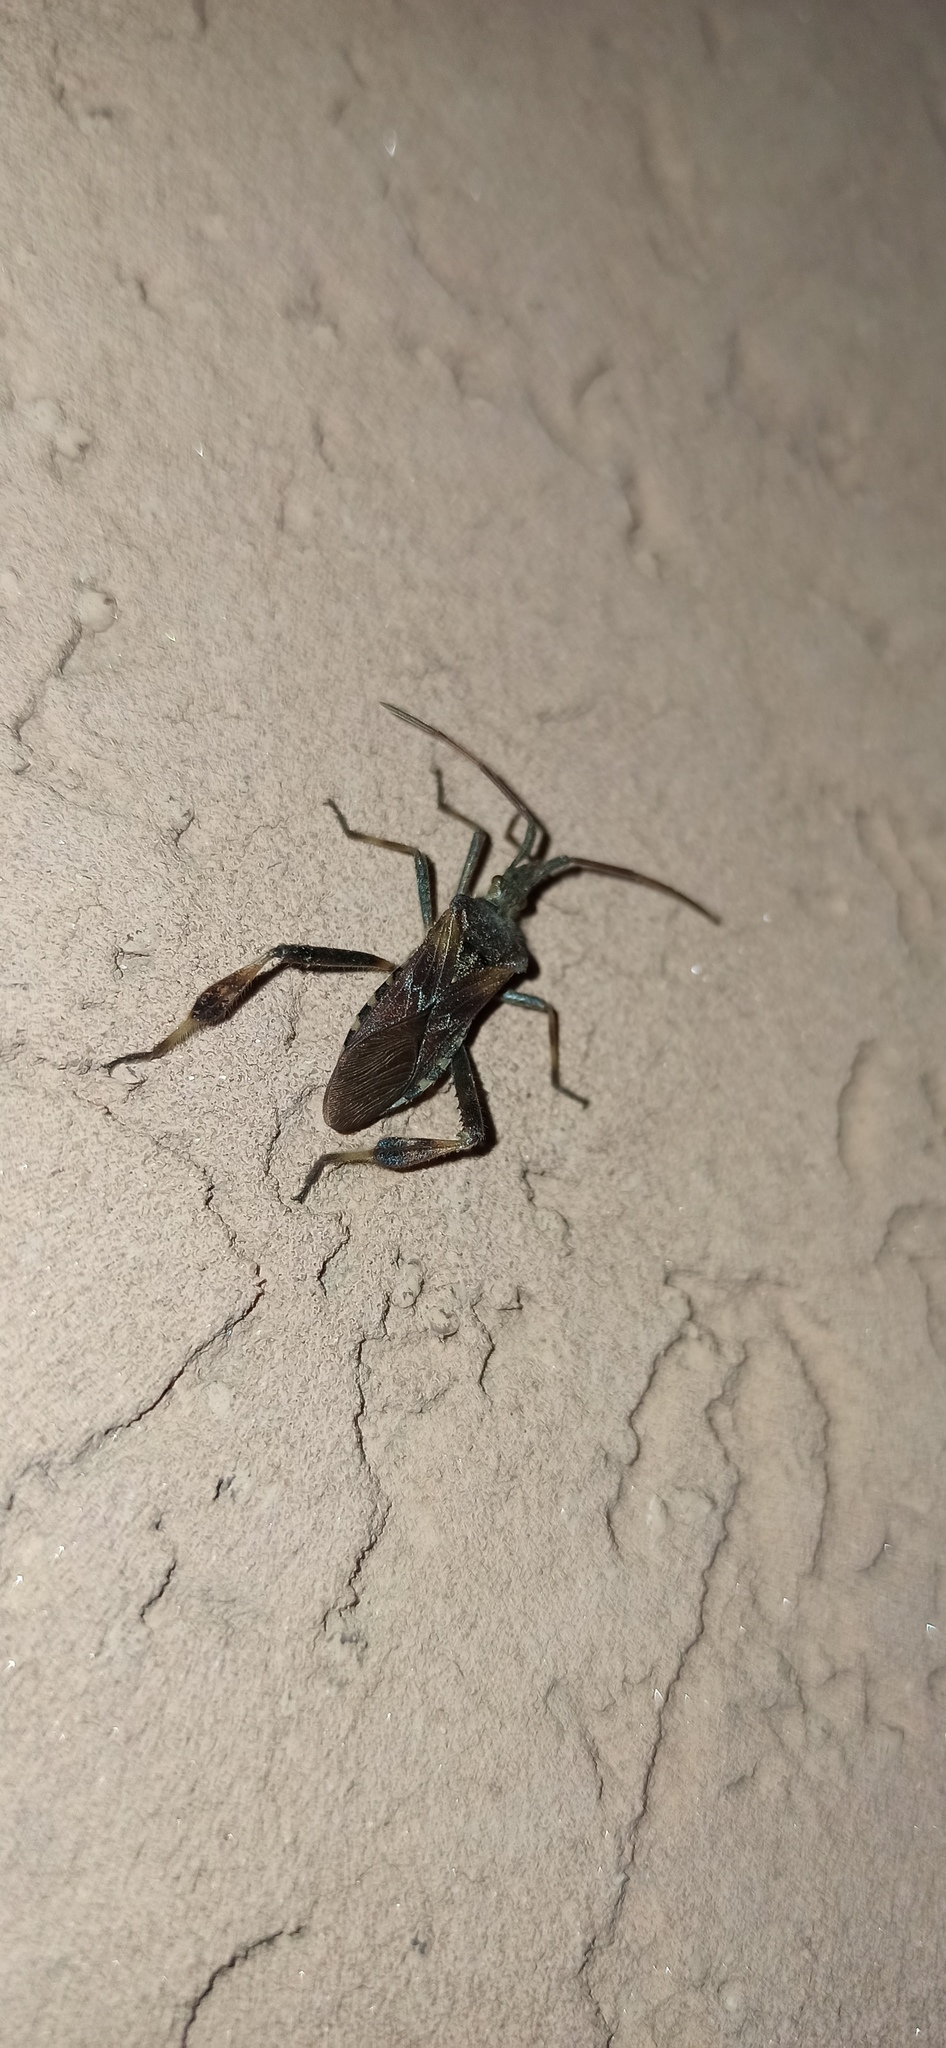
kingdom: Animalia
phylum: Arthropoda
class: Insecta
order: Hemiptera
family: Coreidae
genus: Leptoglossus
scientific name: Leptoglossus occidentalis
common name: Western conifer-seed bug
